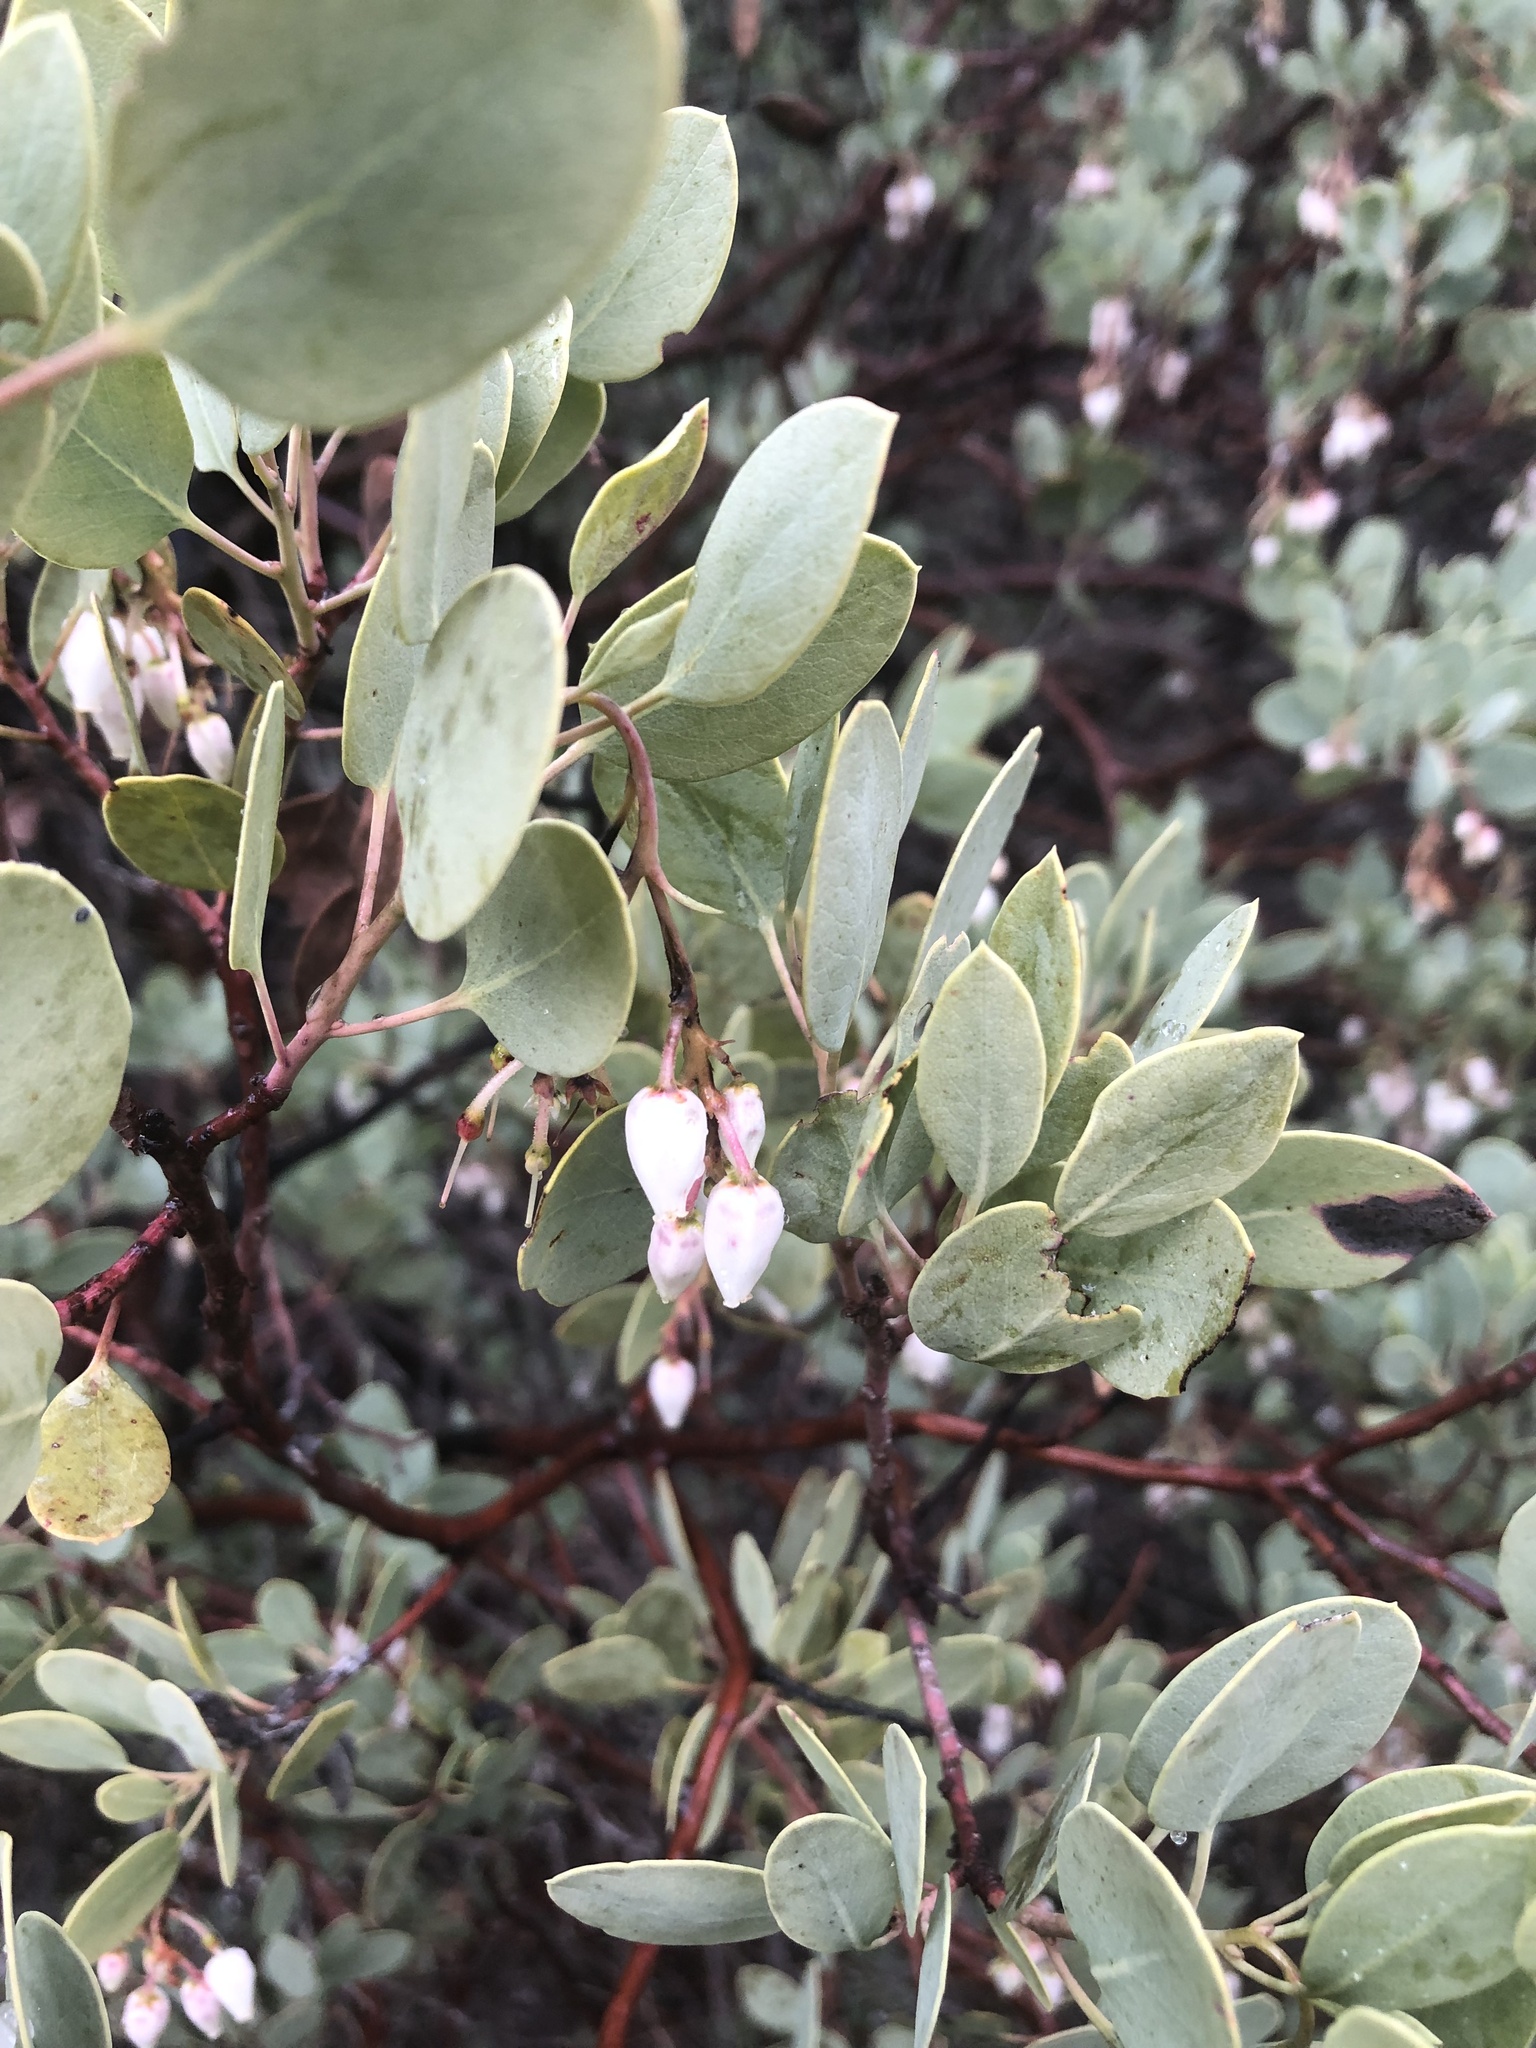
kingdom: Plantae
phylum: Tracheophyta
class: Magnoliopsida
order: Ericales
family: Ericaceae
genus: Arctostaphylos
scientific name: Arctostaphylos glauca
